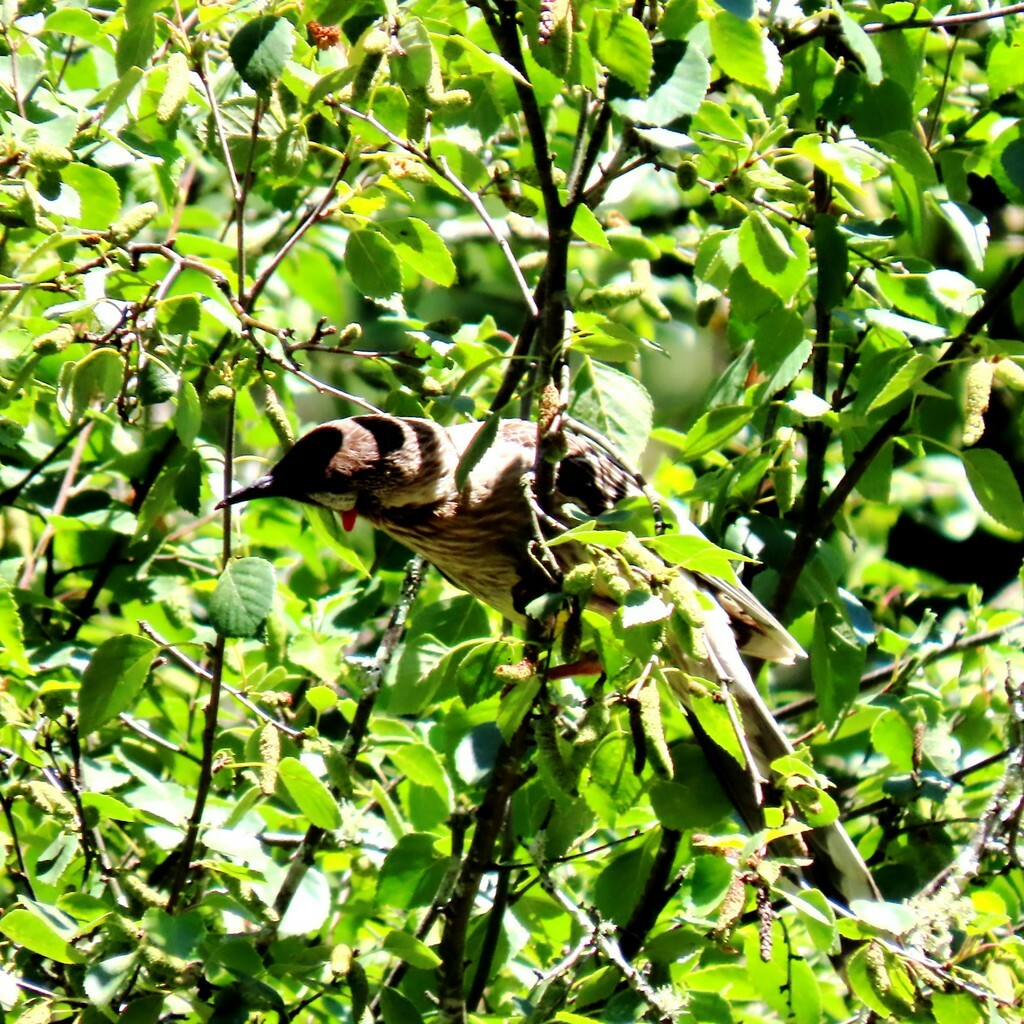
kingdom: Animalia
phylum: Chordata
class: Aves
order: Passeriformes
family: Meliphagidae
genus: Anthochaera
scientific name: Anthochaera carunculata
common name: Red wattlebird
